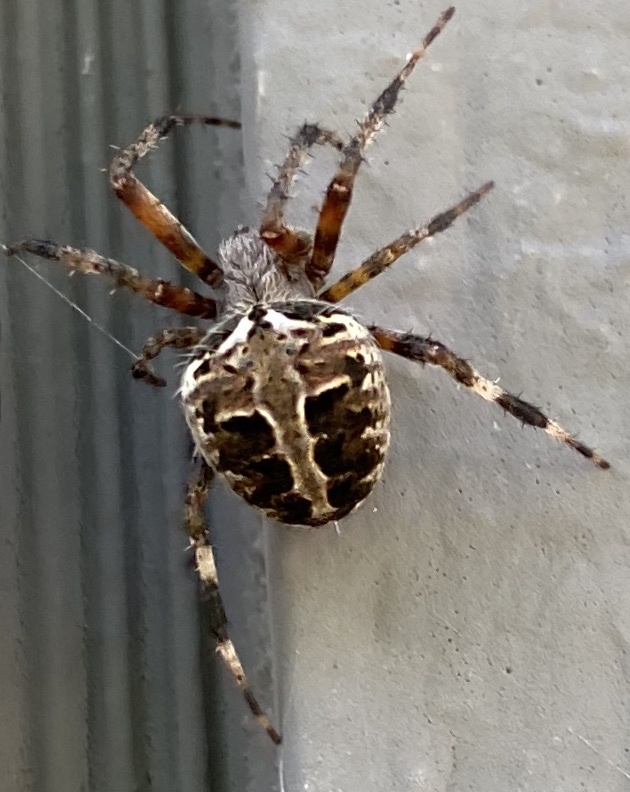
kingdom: Animalia
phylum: Arthropoda
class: Arachnida
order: Araneae
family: Araneidae
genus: Neoscona
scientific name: Neoscona domiciliorum
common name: Red-femured spotted orbweaver
